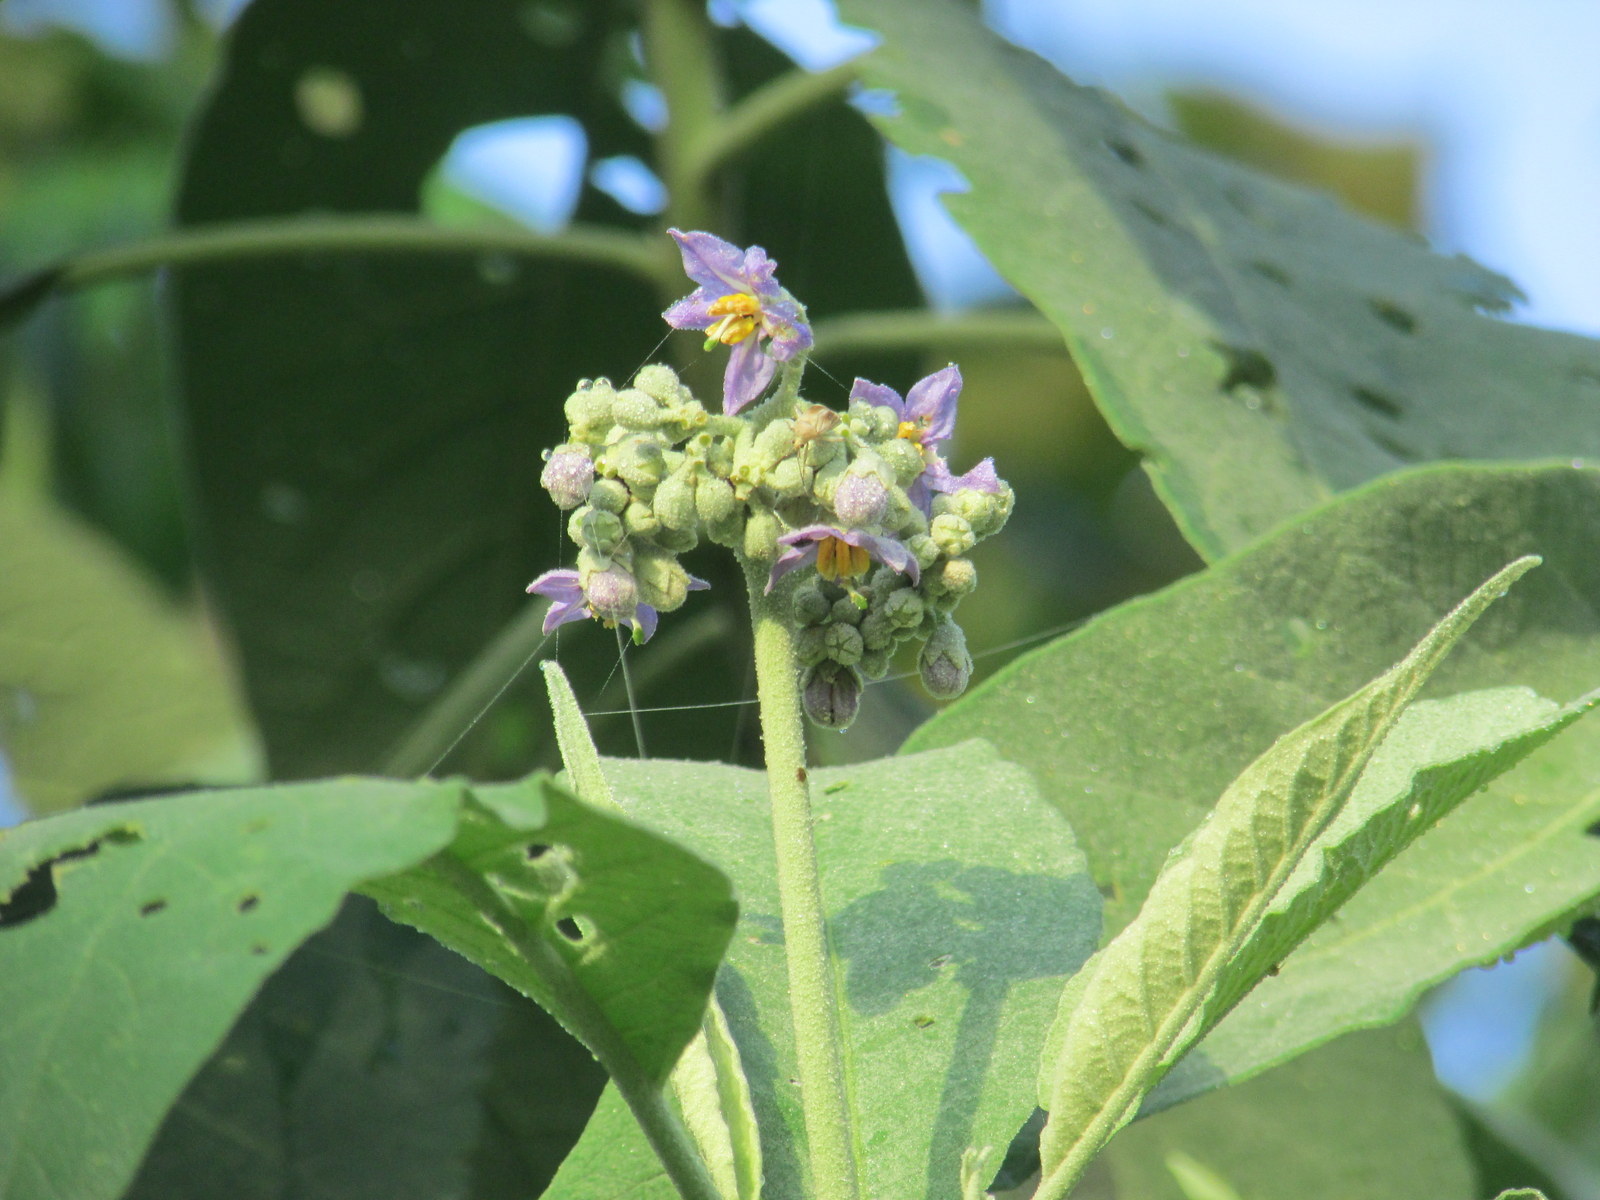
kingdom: Plantae
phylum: Tracheophyta
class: Magnoliopsida
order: Solanales
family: Solanaceae
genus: Solanum
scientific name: Solanum granulosoleprosum
